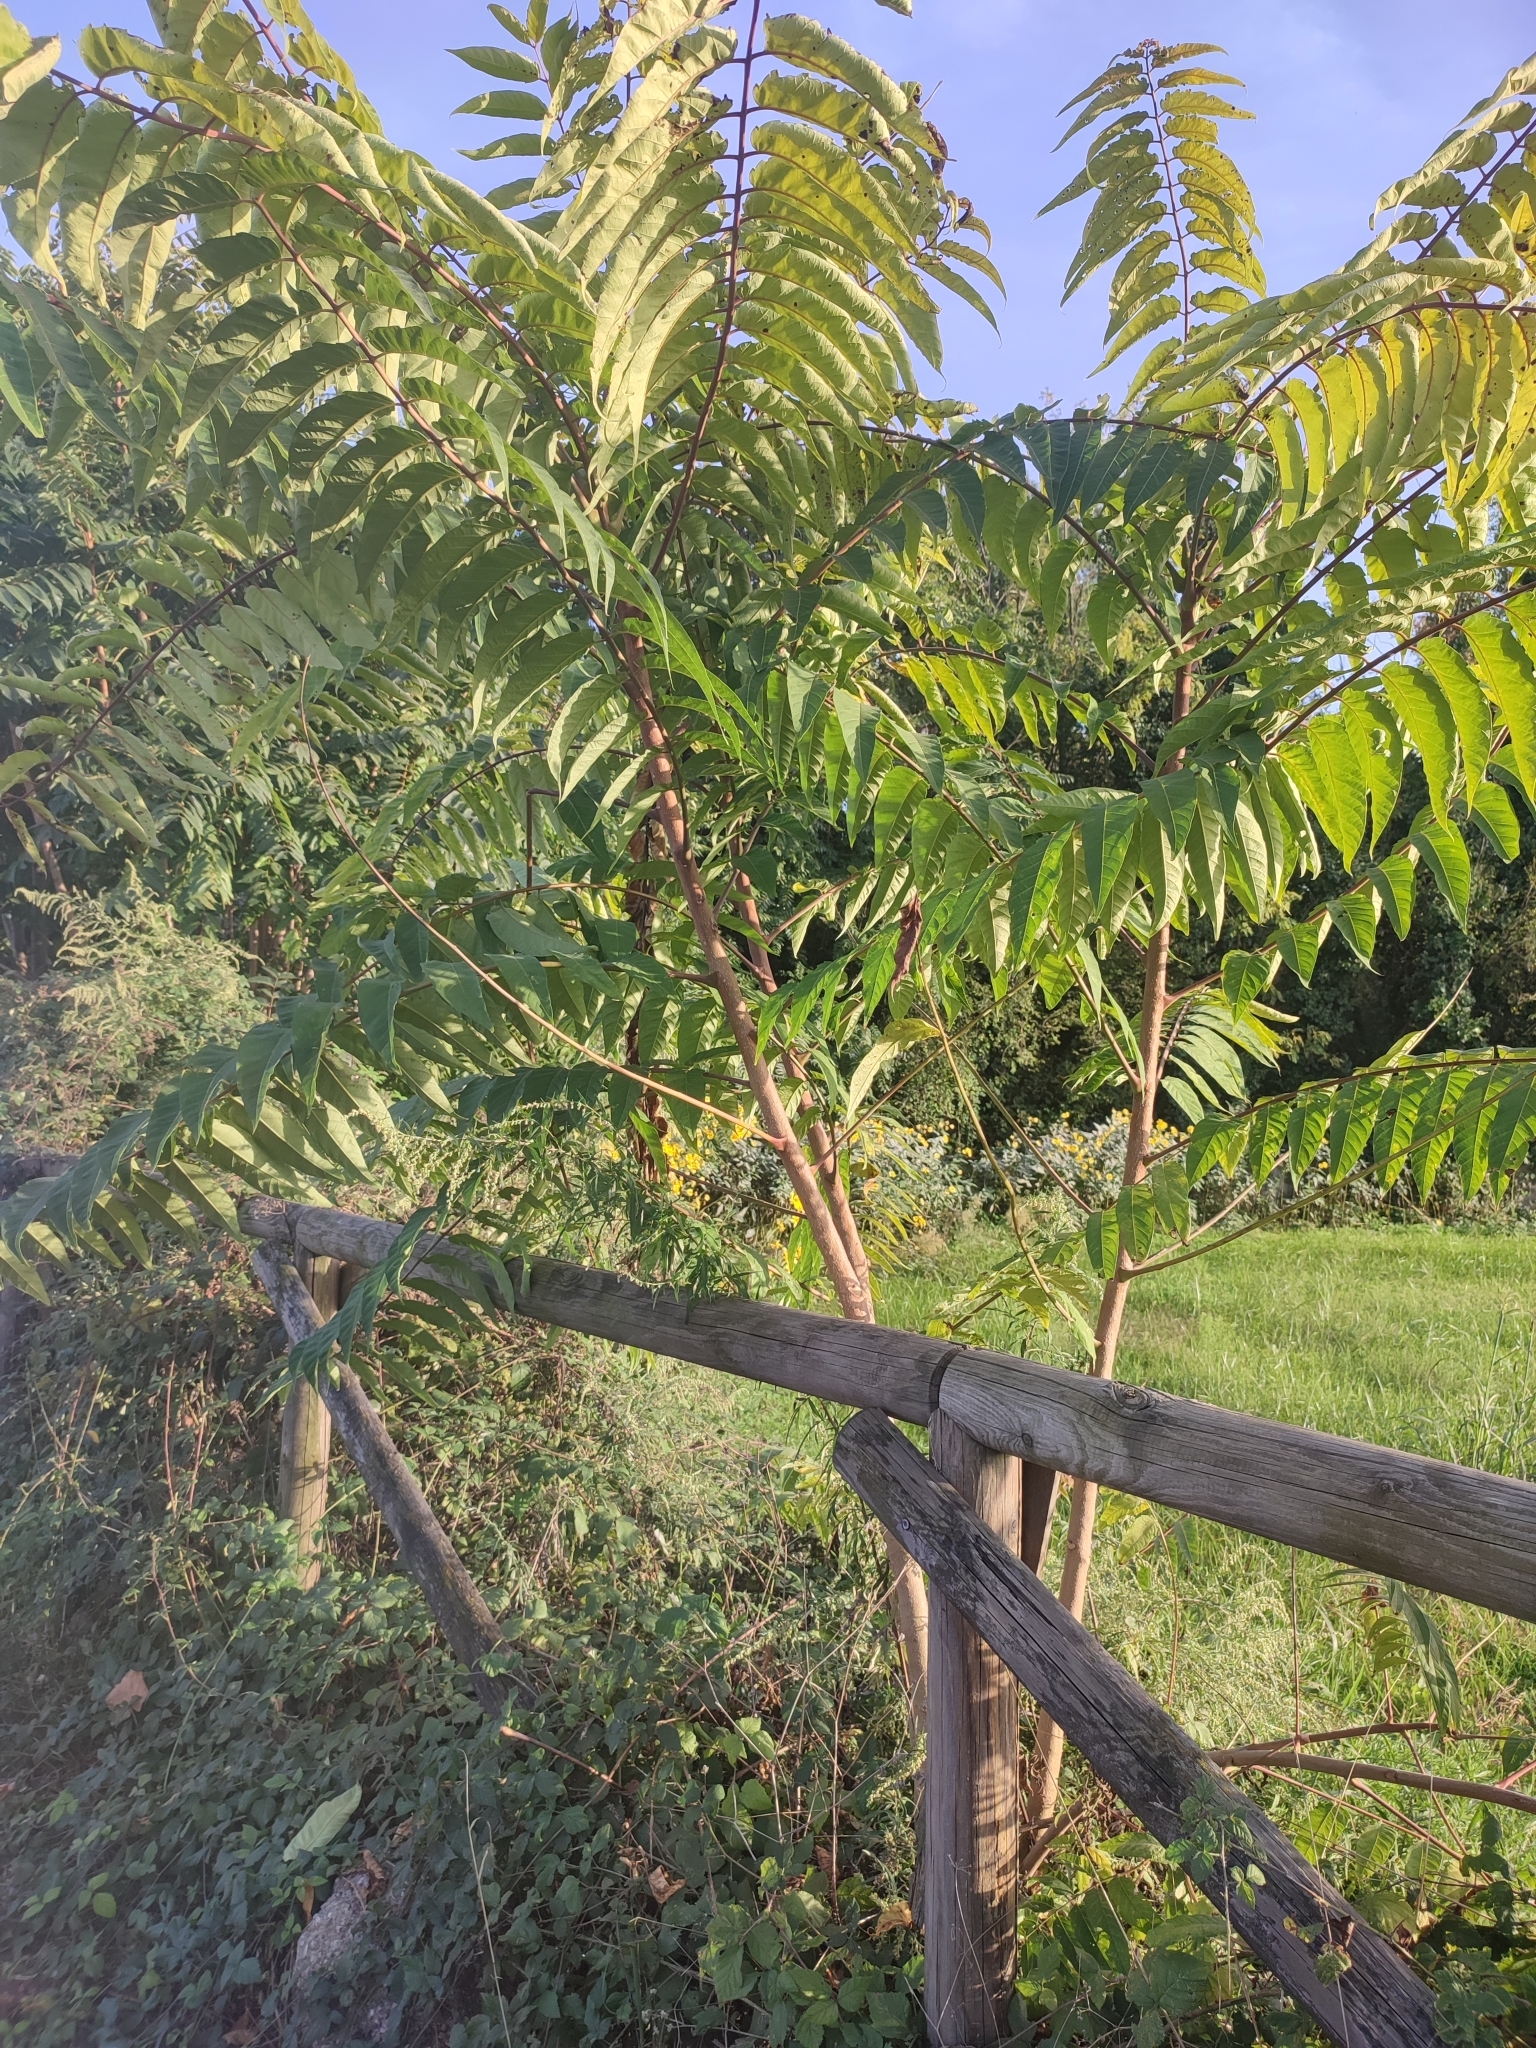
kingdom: Plantae
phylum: Tracheophyta
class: Magnoliopsida
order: Sapindales
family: Simaroubaceae
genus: Ailanthus
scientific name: Ailanthus altissima
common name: Tree-of-heaven
